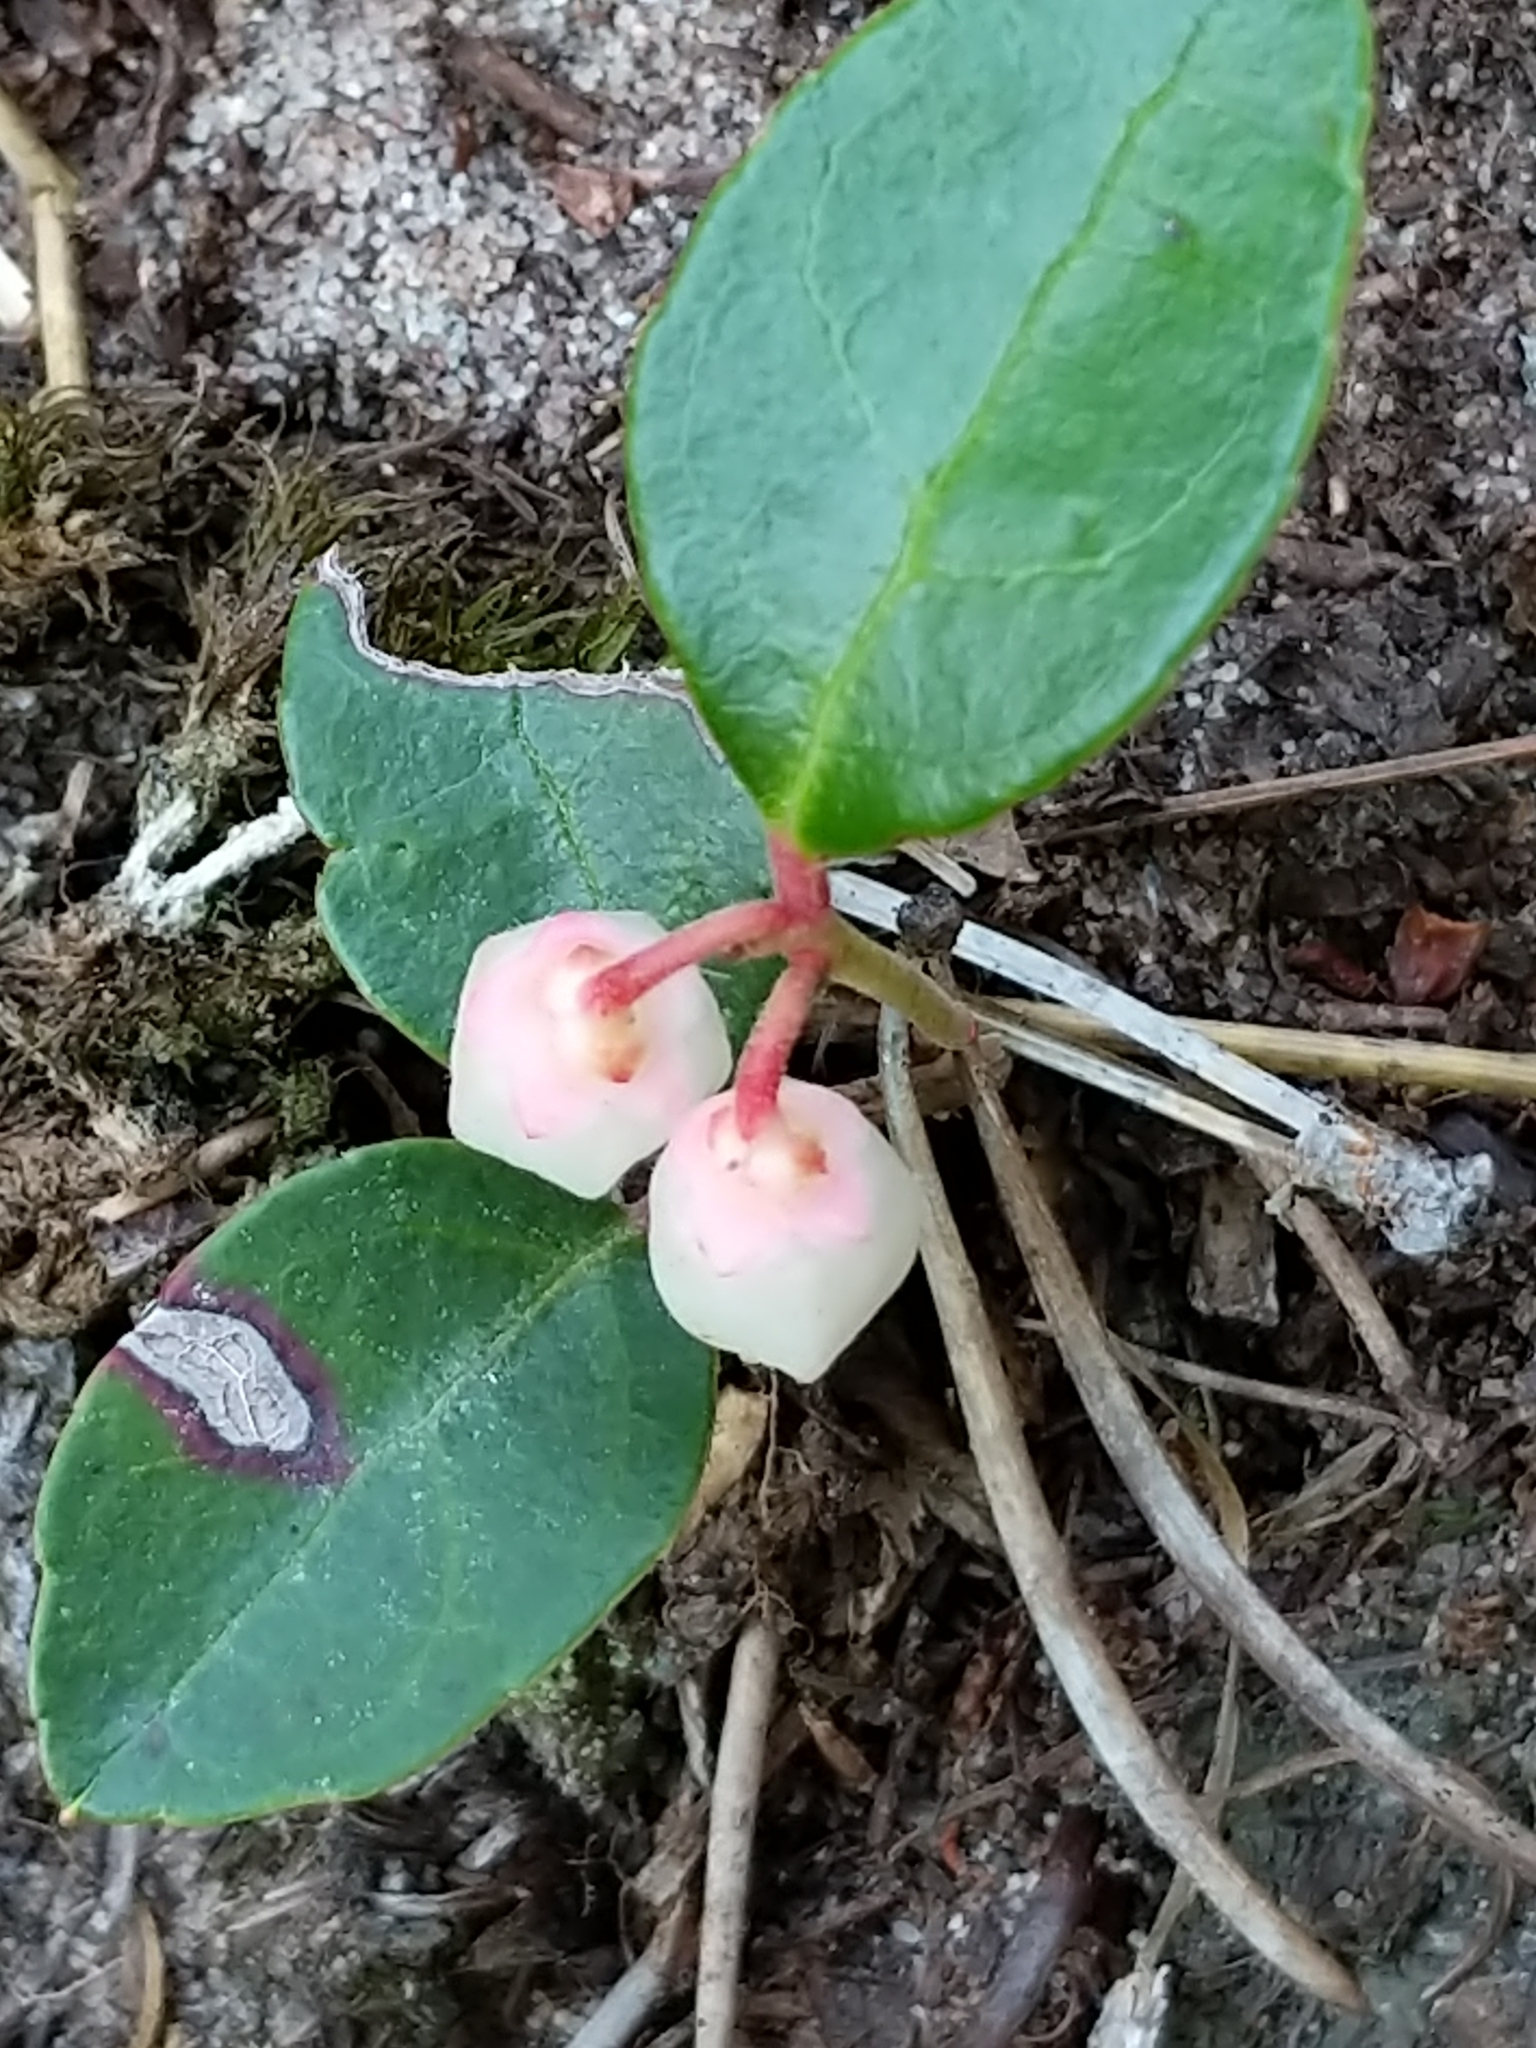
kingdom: Plantae
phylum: Tracheophyta
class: Magnoliopsida
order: Ericales
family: Ericaceae
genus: Gaultheria
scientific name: Gaultheria procumbens
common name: Checkerberry
